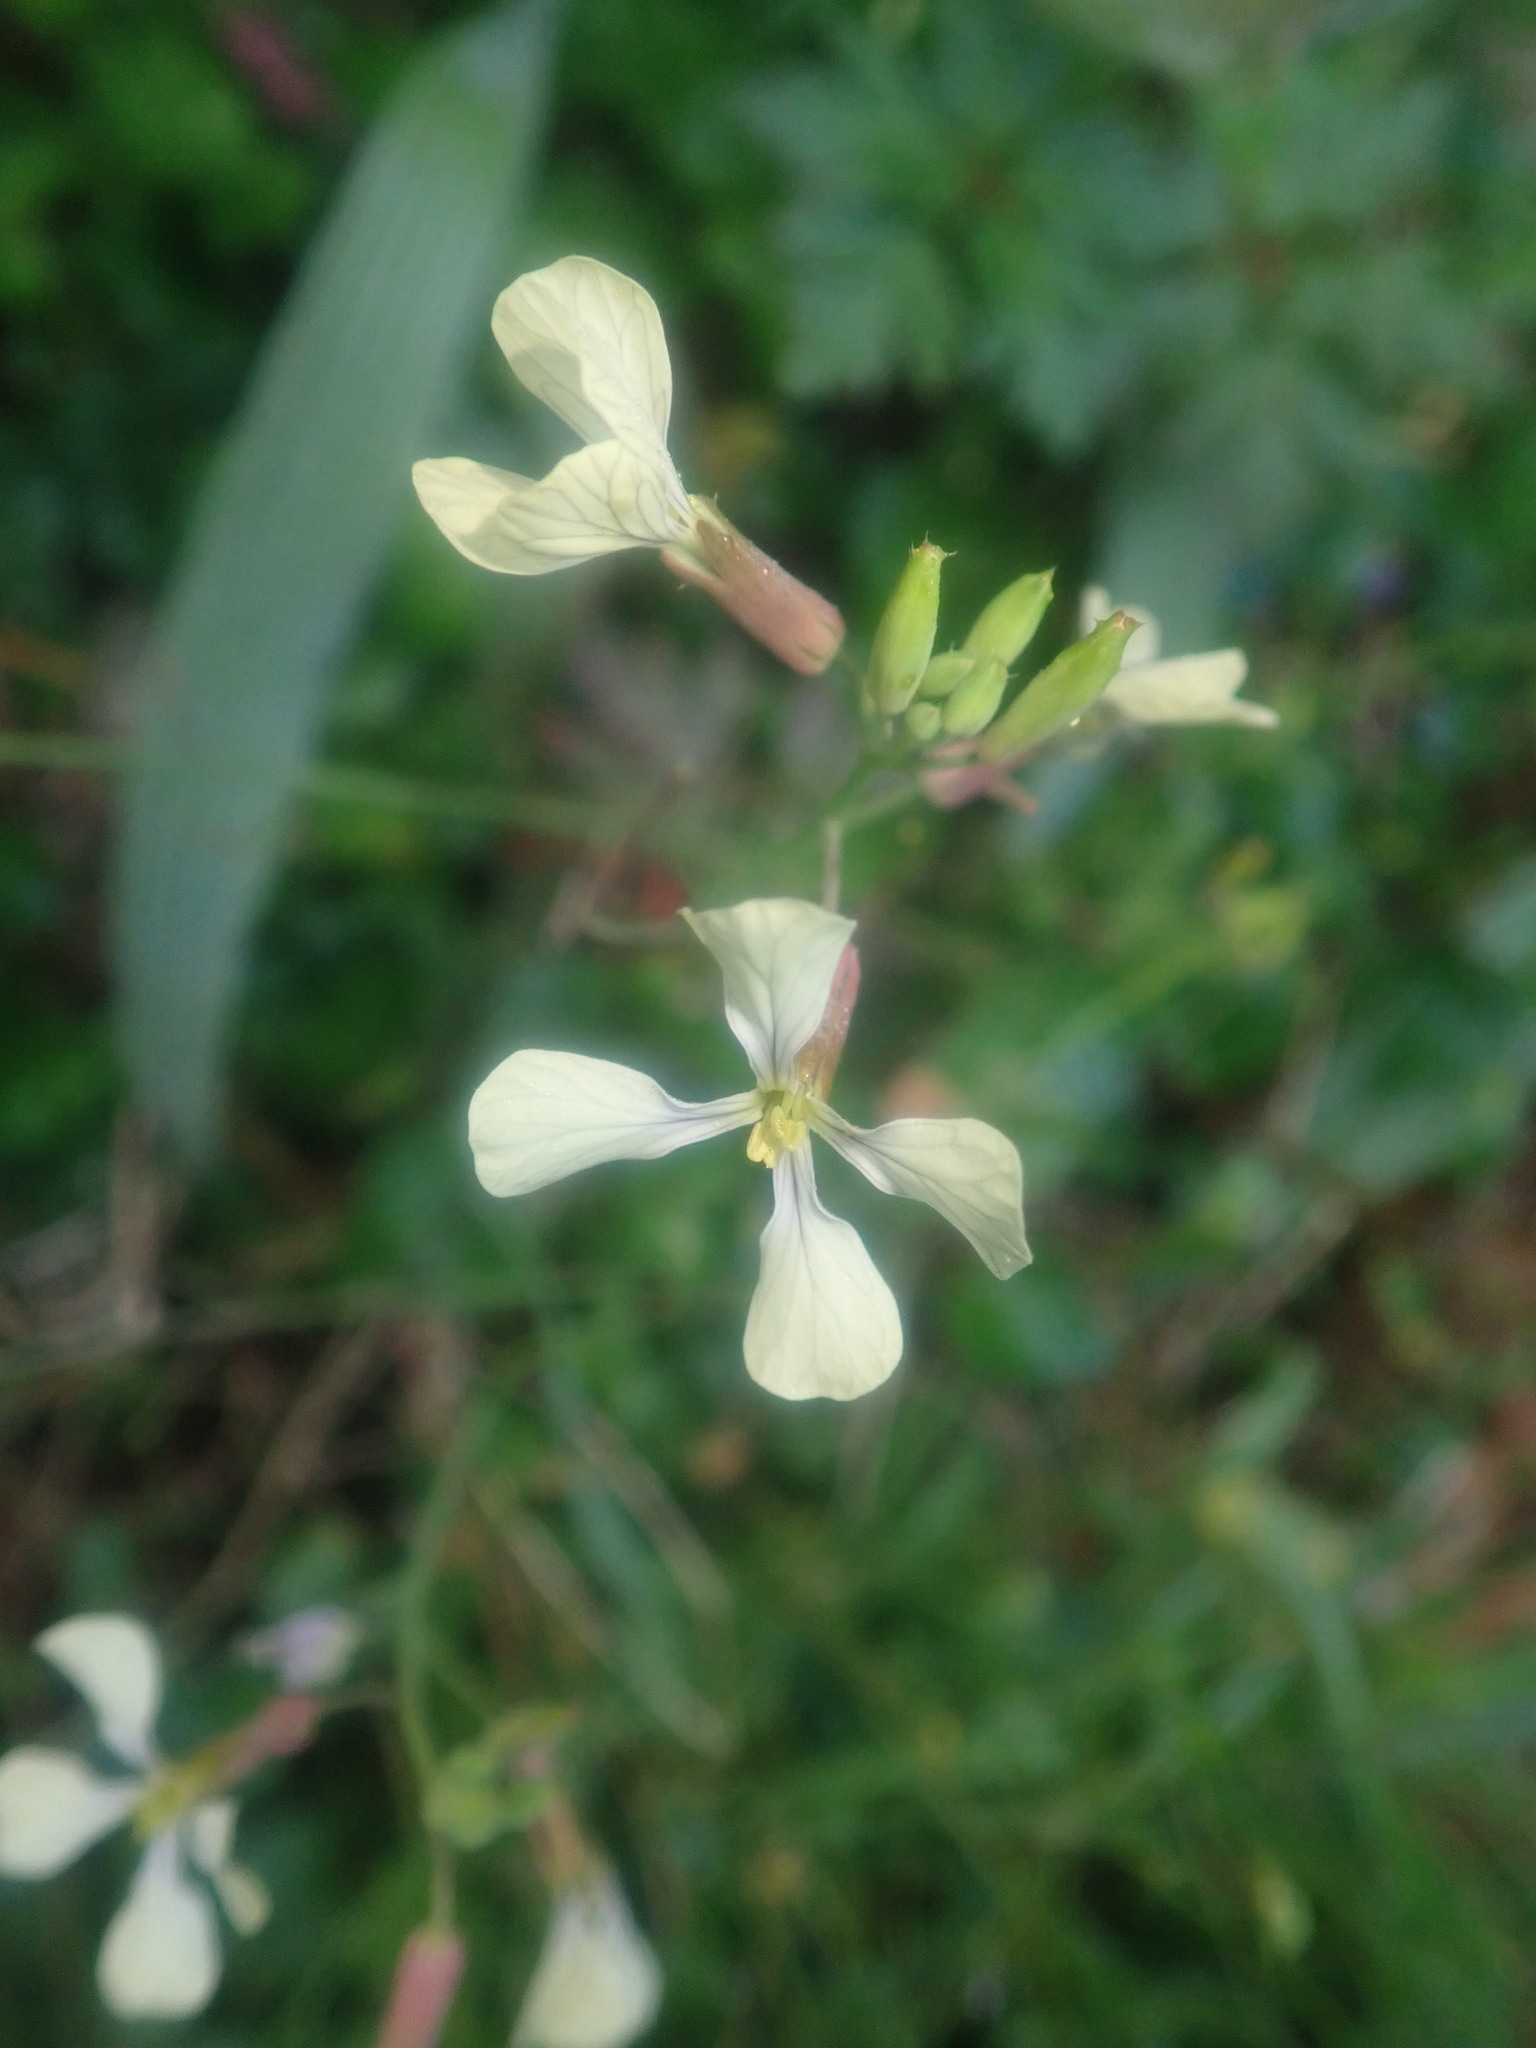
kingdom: Plantae
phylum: Tracheophyta
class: Magnoliopsida
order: Brassicales
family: Brassicaceae
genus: Raphanus
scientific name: Raphanus raphanistrum
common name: Wild radish
